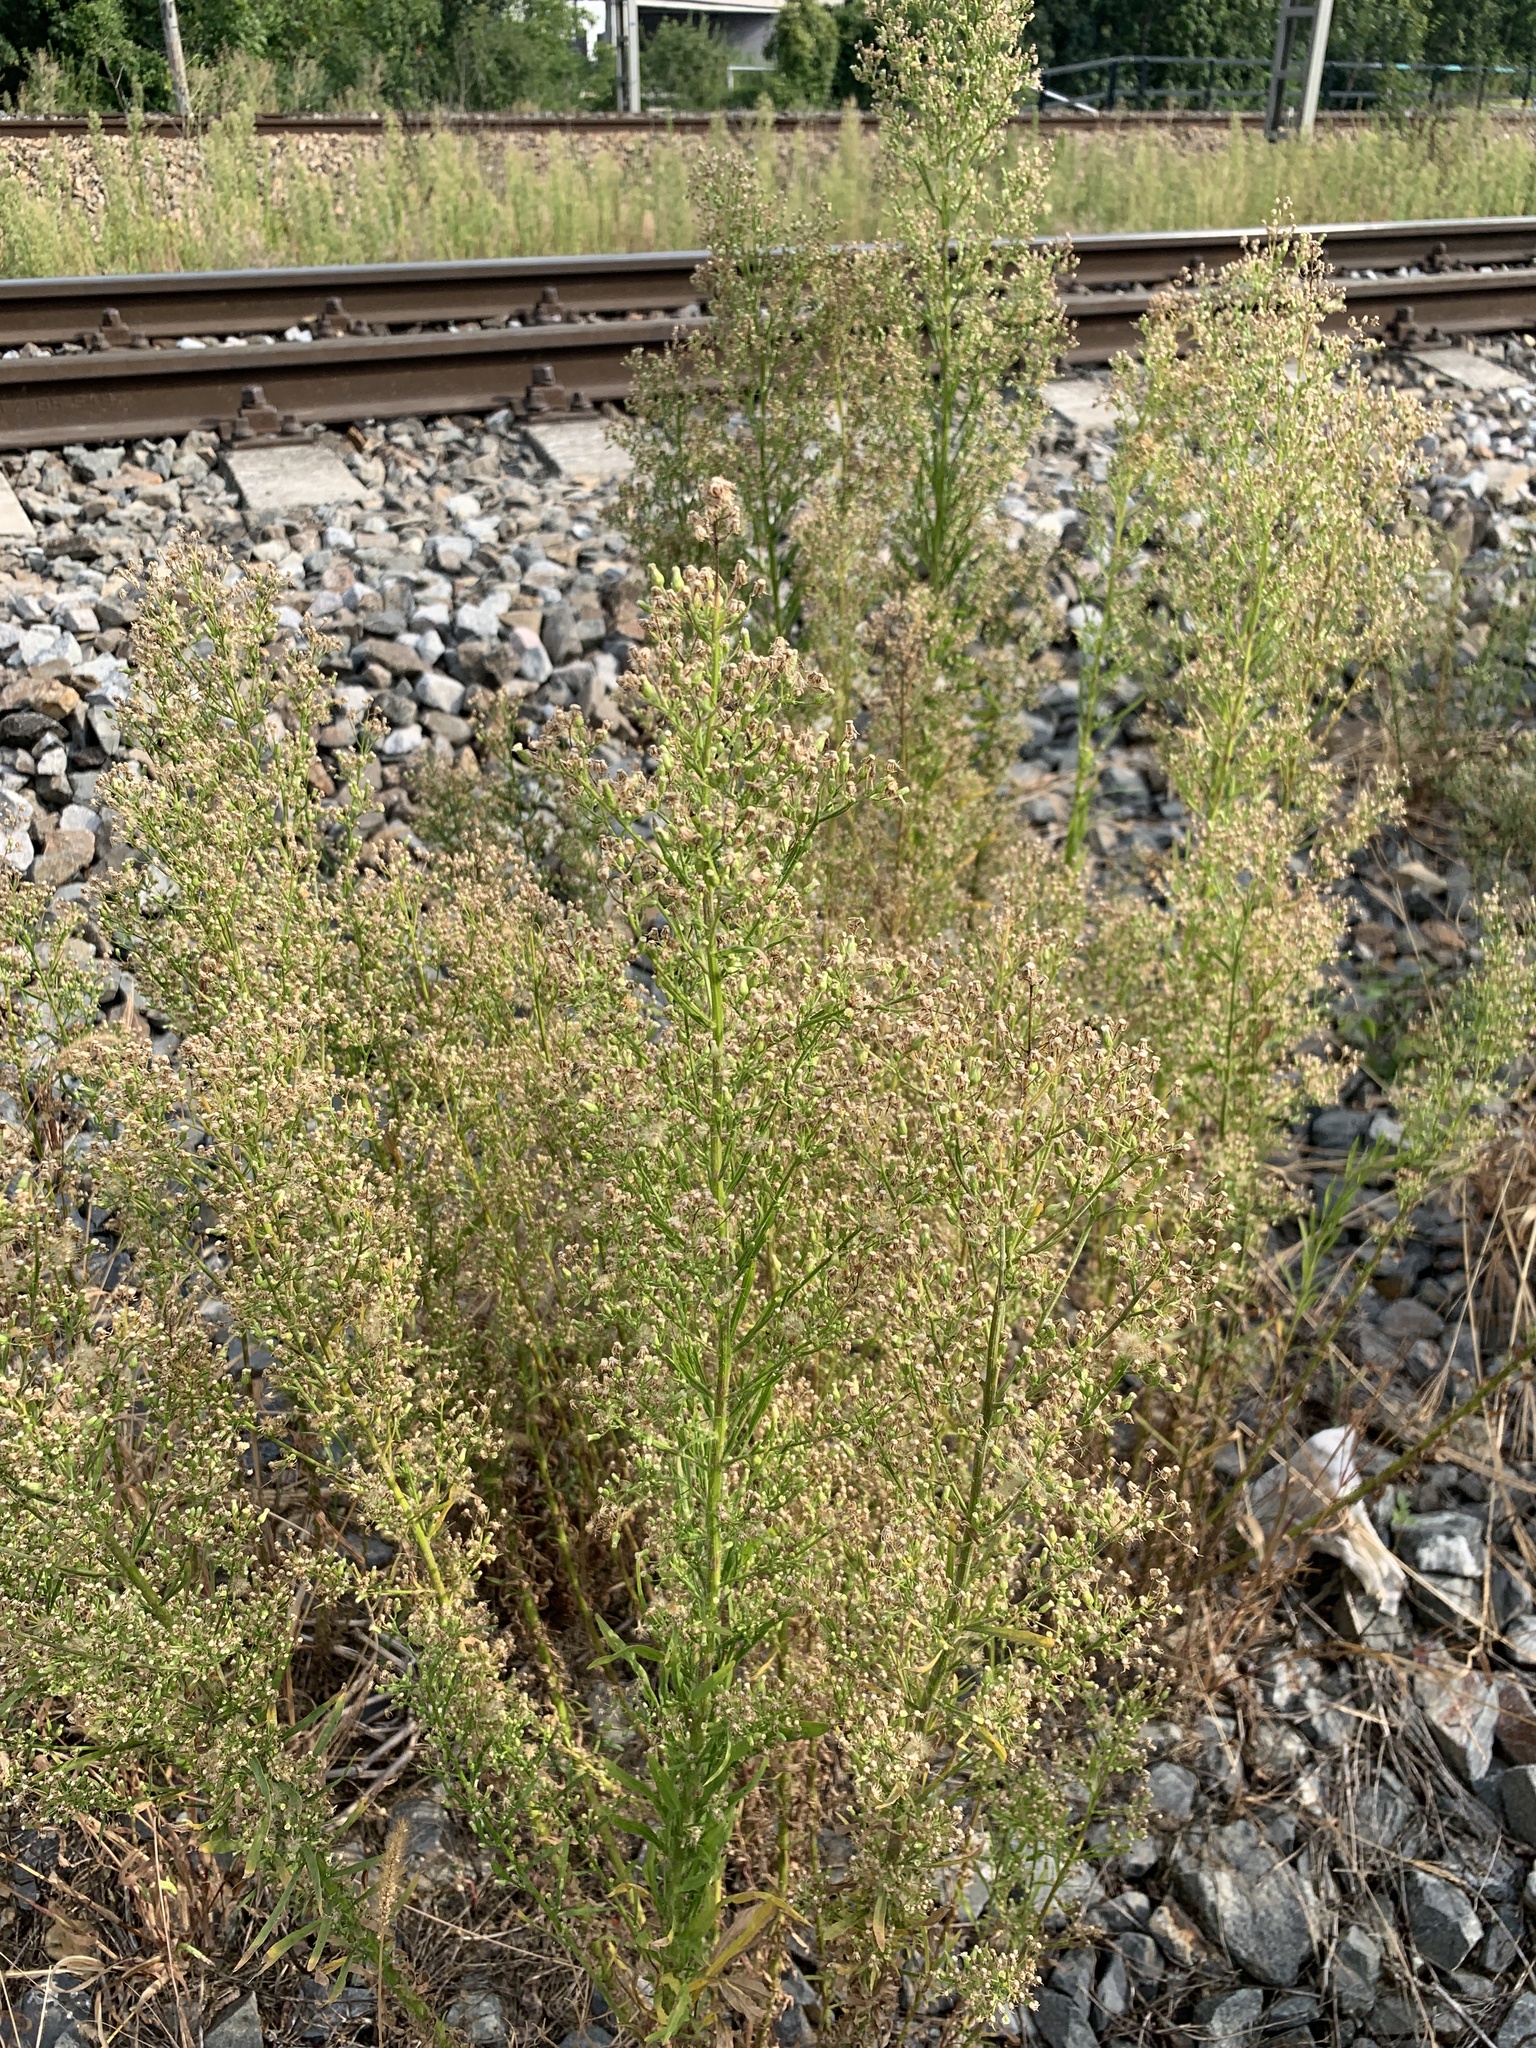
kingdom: Plantae
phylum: Tracheophyta
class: Magnoliopsida
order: Asterales
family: Asteraceae
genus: Erigeron
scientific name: Erigeron canadensis
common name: Canadian fleabane
